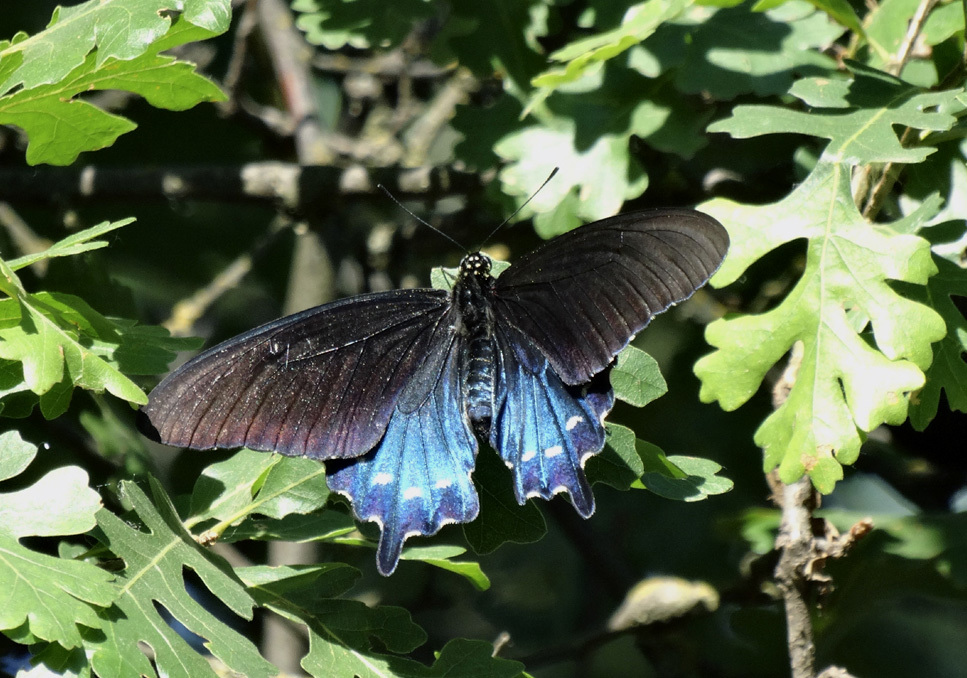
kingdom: Animalia
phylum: Arthropoda
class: Insecta
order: Lepidoptera
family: Papilionidae
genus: Battus
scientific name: Battus philenor
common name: Pipevine swallowtail
